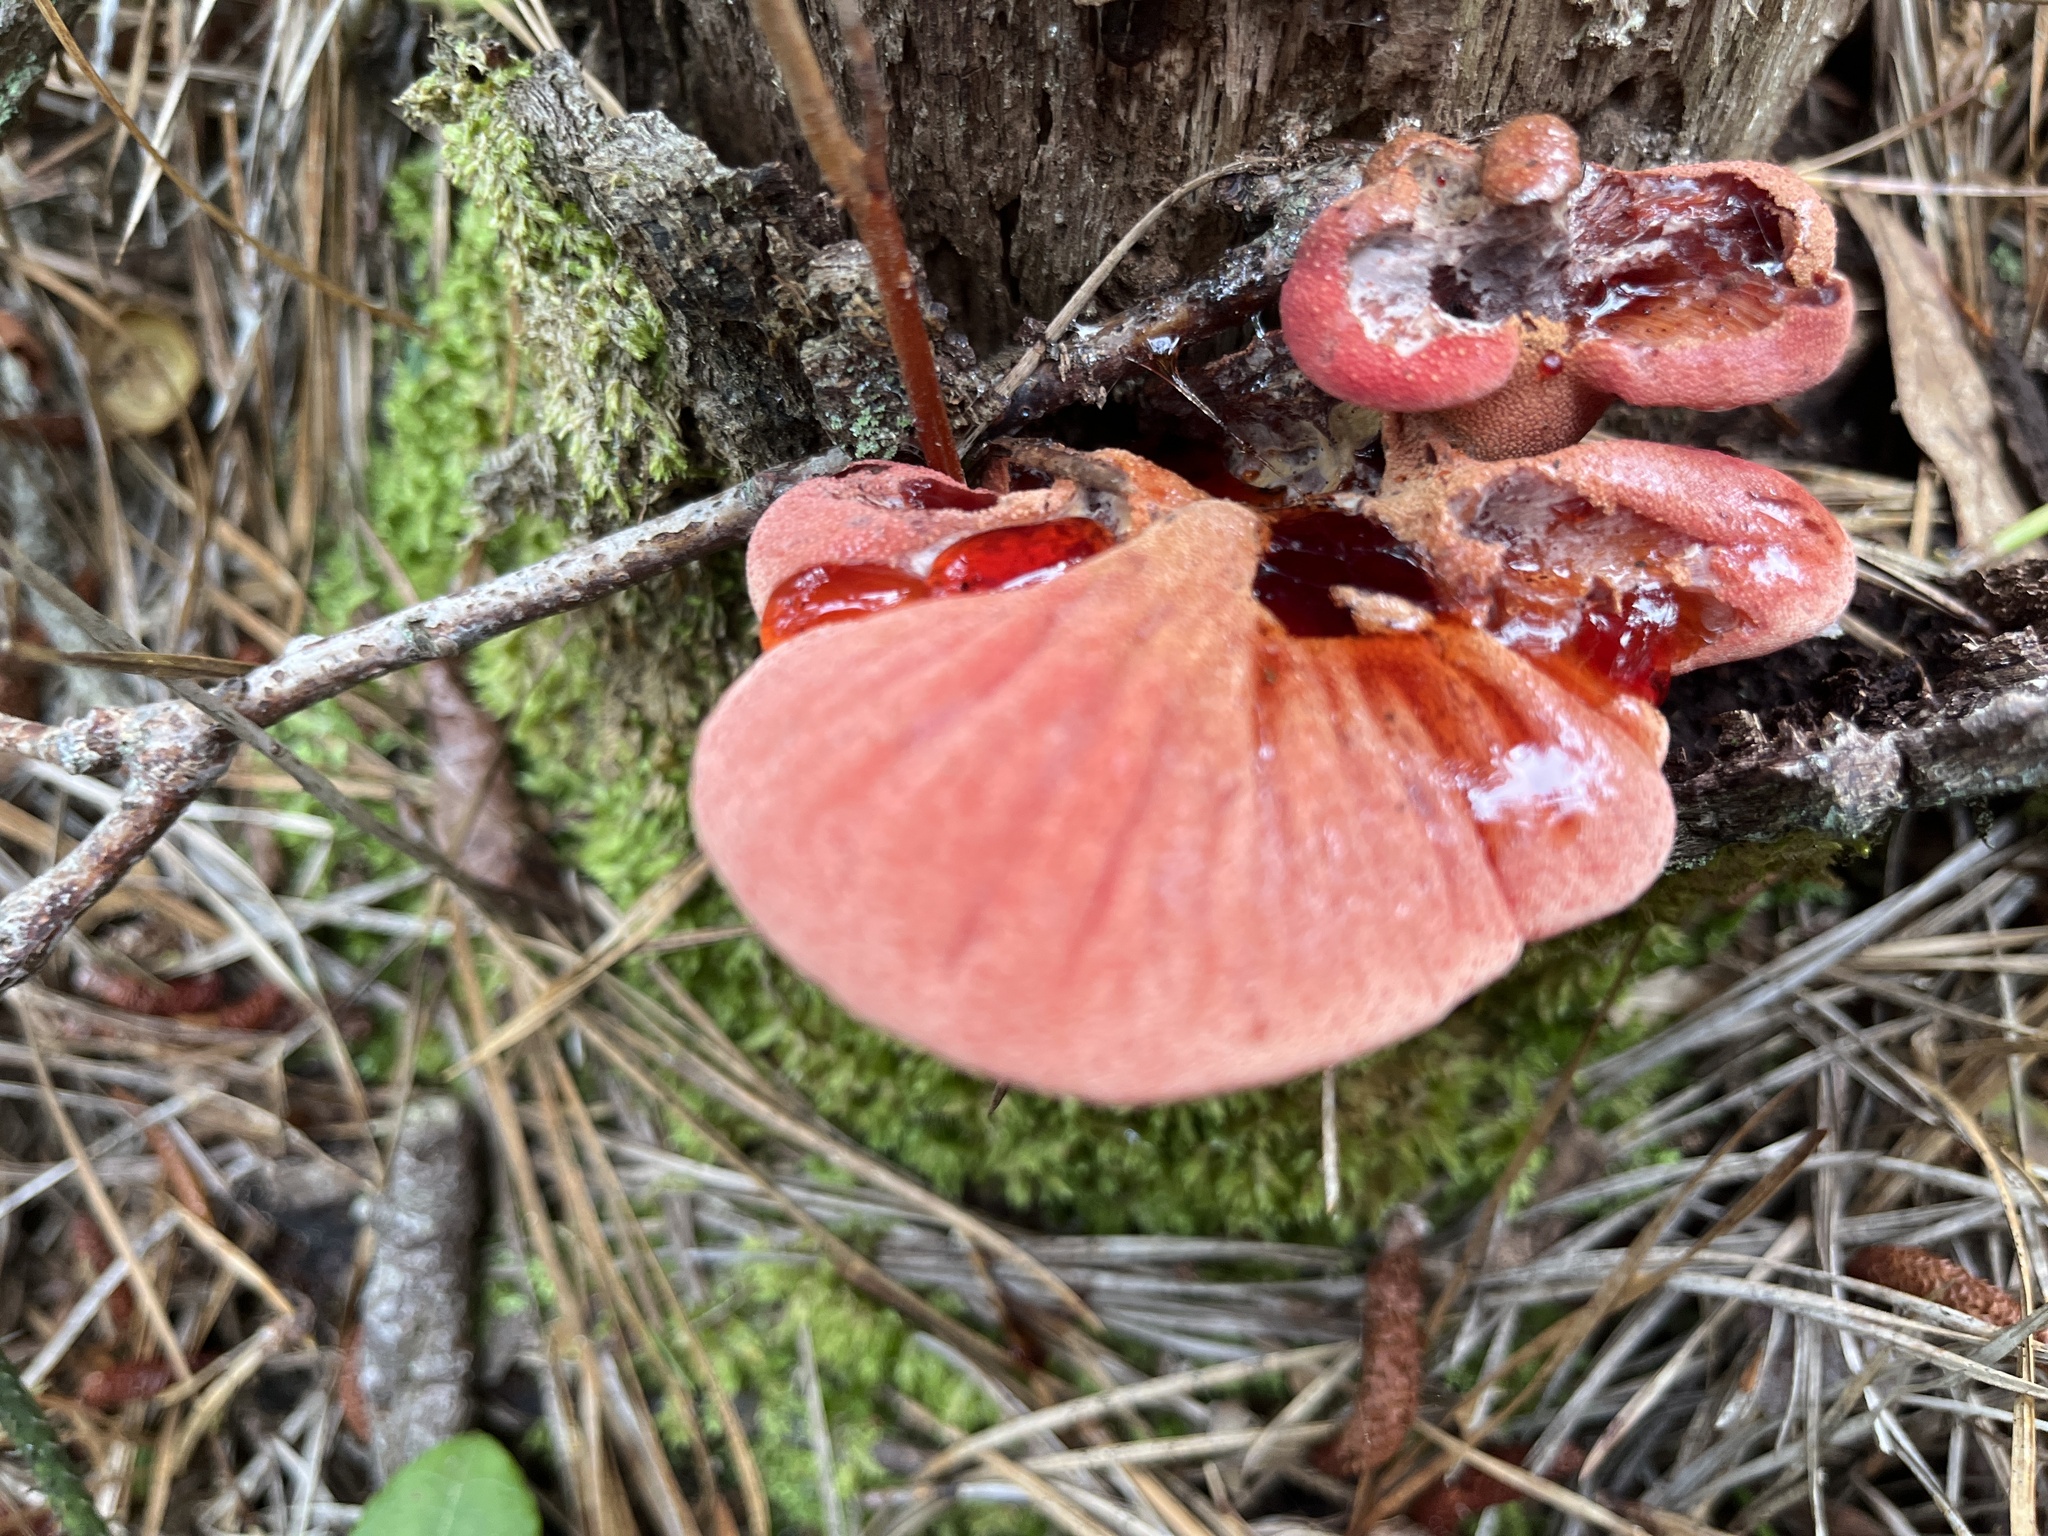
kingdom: Fungi
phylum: Basidiomycota
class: Agaricomycetes
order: Agaricales
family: Fistulinaceae
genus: Fistulina
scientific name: Fistulina hepatica
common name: Beef-steak fungus
